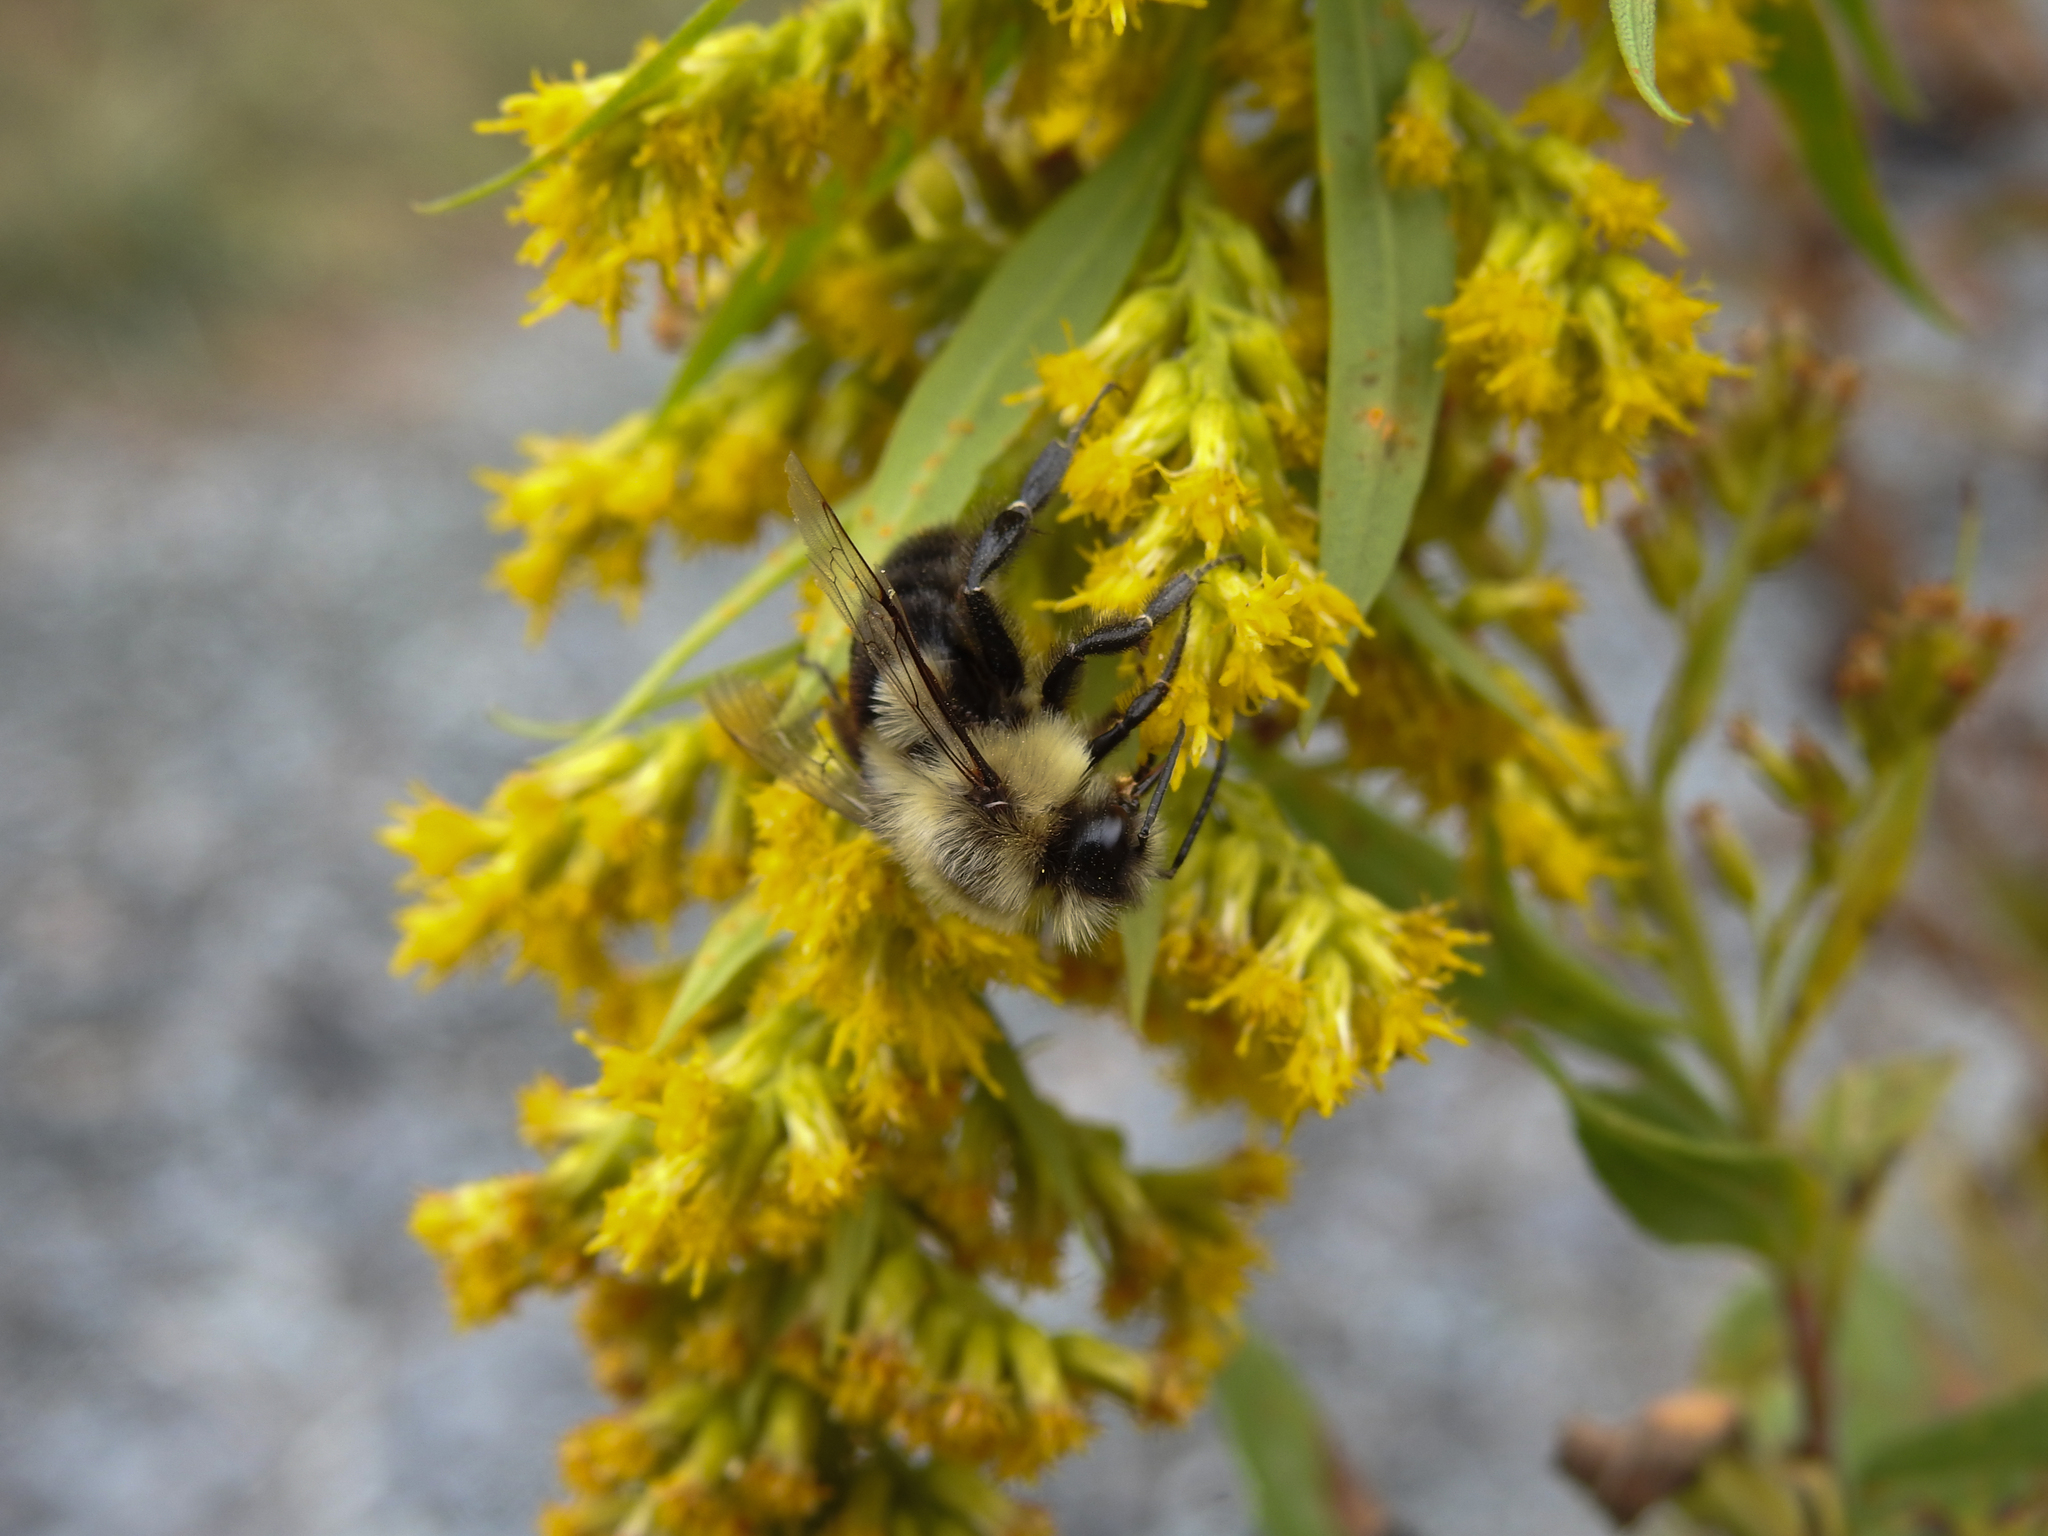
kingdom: Animalia
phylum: Arthropoda
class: Insecta
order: Hymenoptera
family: Apidae
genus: Bombus
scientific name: Bombus impatiens
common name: Common eastern bumble bee
